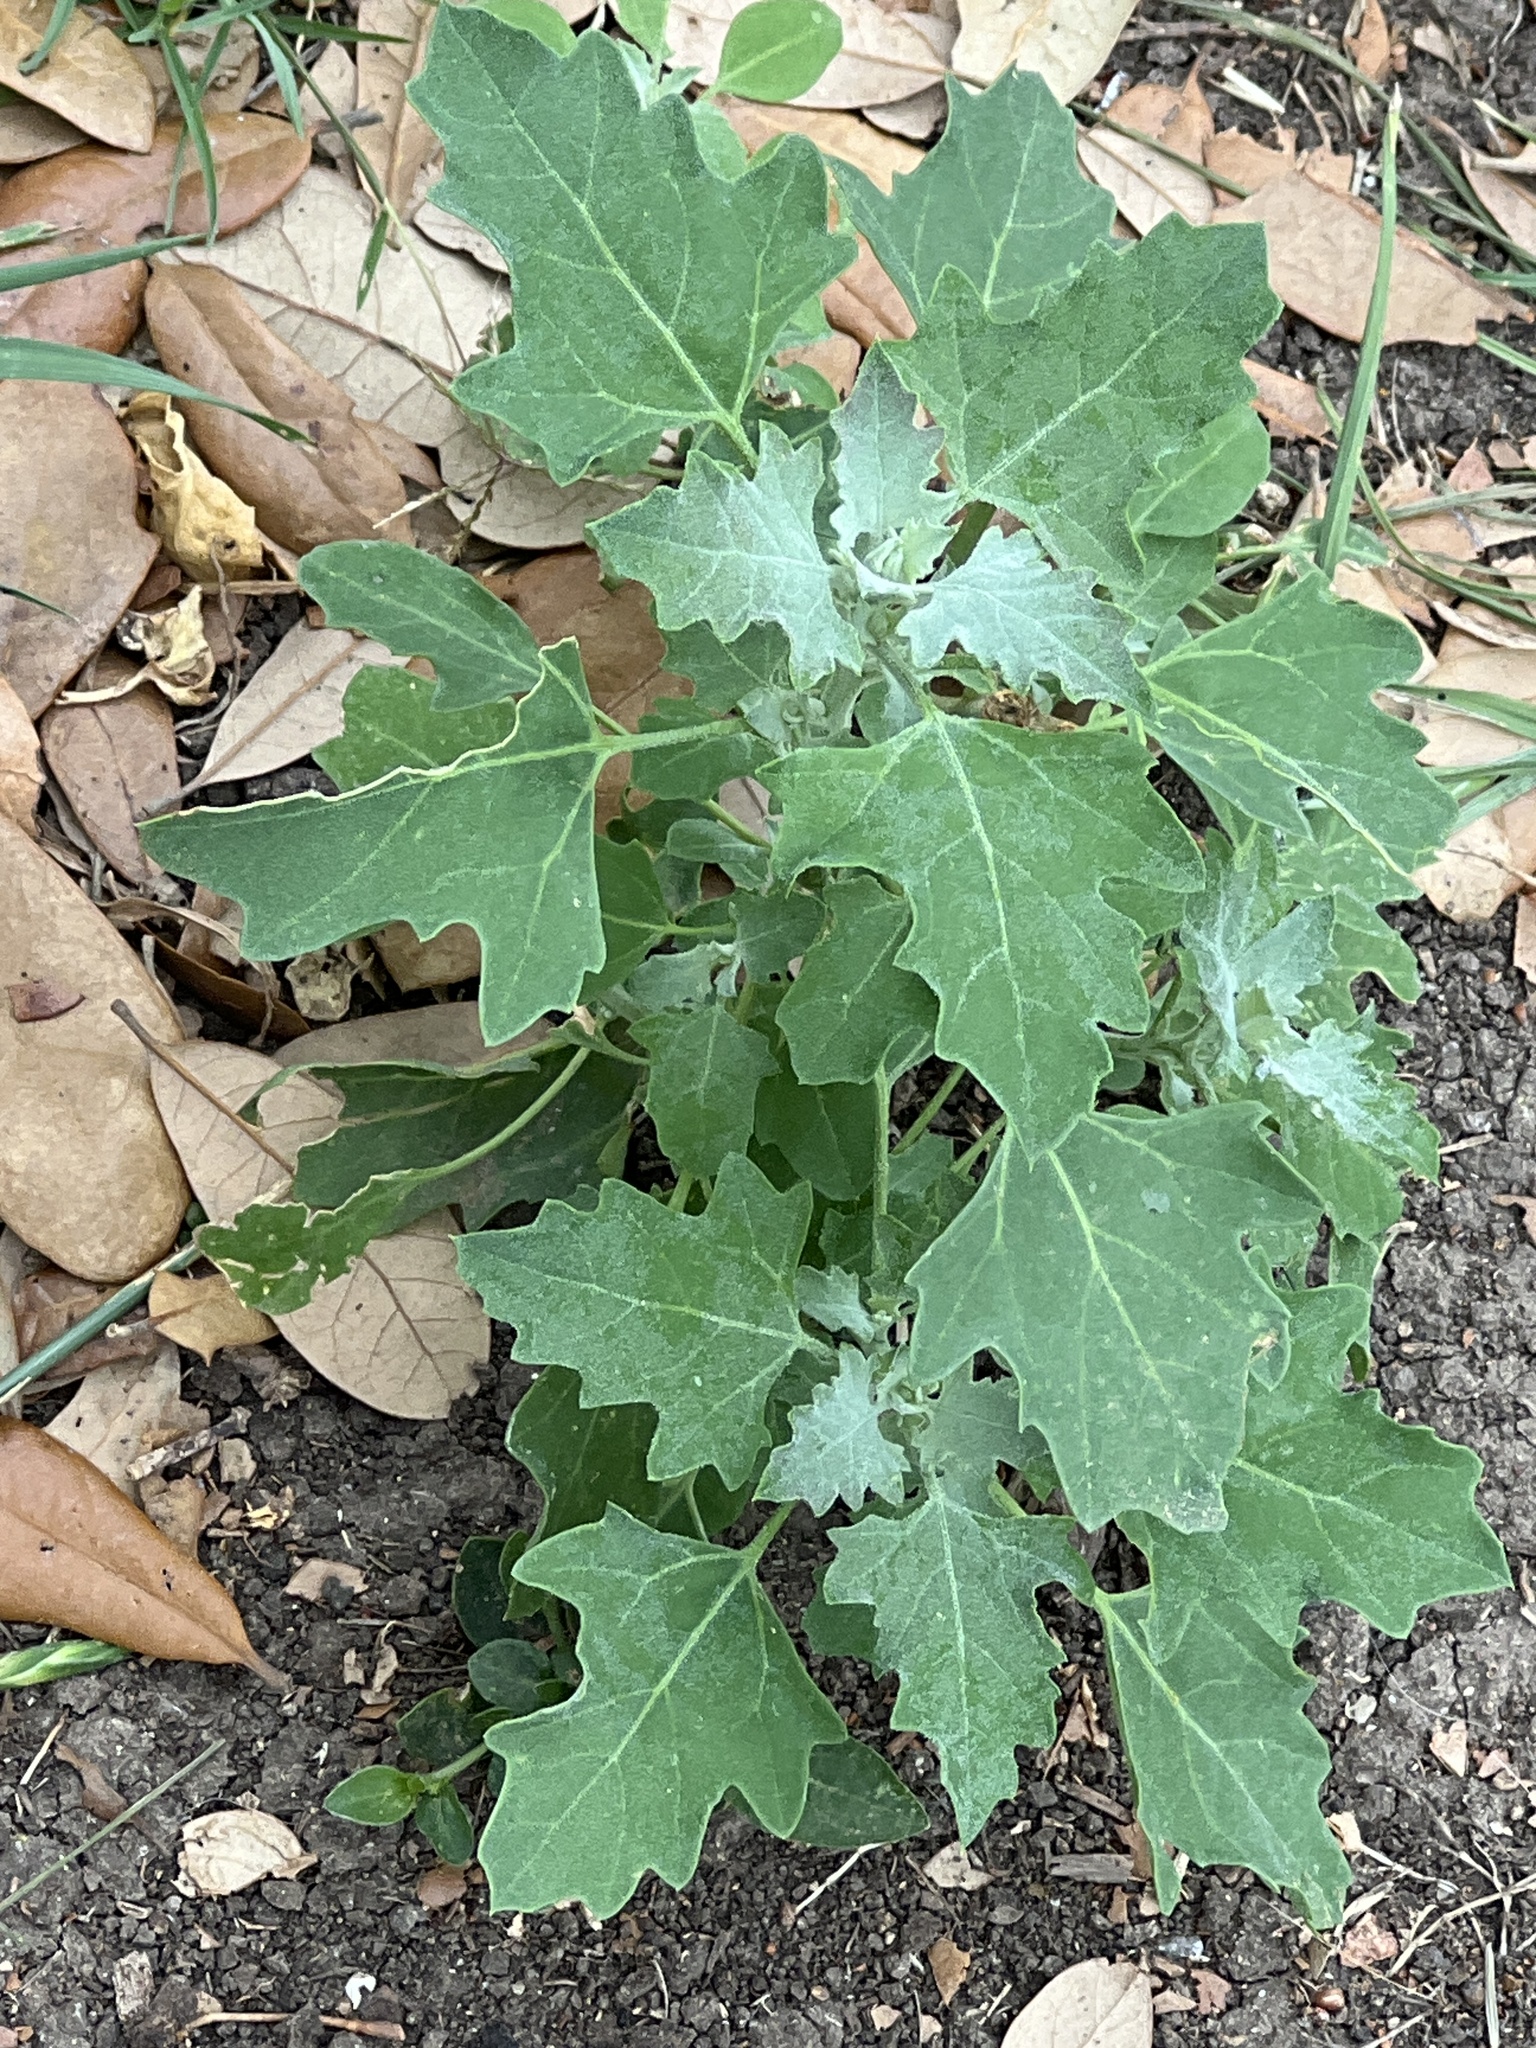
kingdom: Plantae
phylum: Tracheophyta
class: Magnoliopsida
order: Caryophyllales
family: Amaranthaceae
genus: Chenopodium
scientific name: Chenopodium album
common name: Fat-hen
